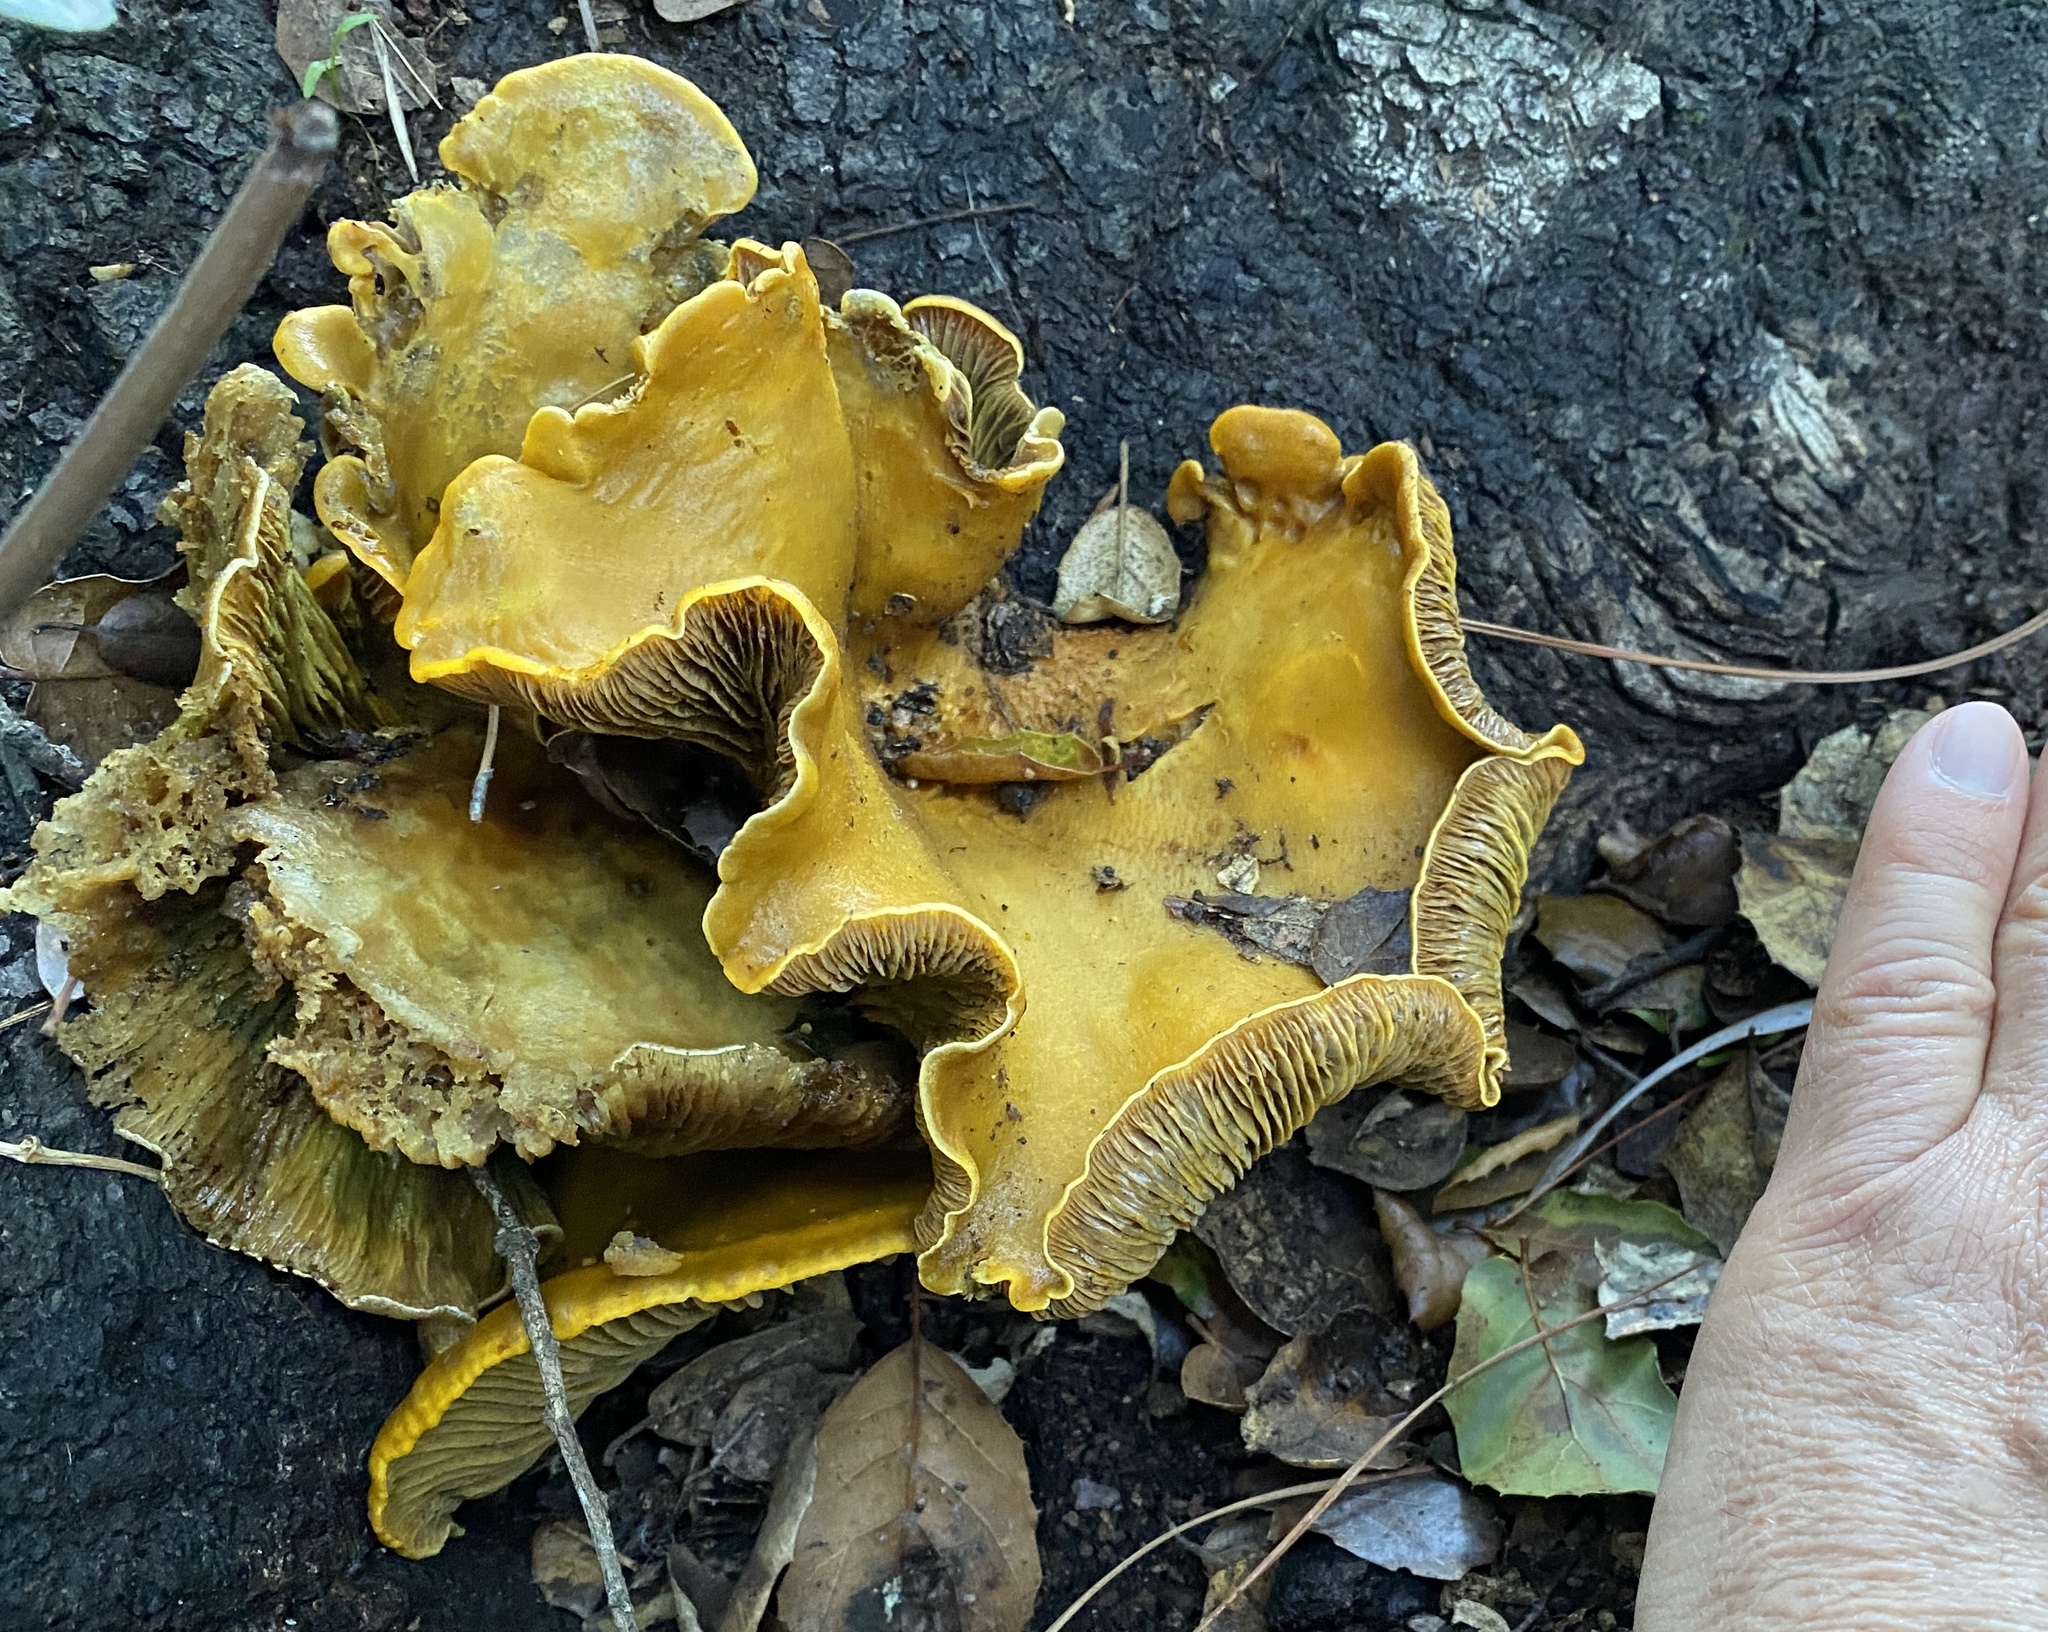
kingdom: Fungi
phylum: Basidiomycota
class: Agaricomycetes
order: Agaricales
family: Omphalotaceae
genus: Omphalotus
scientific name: Omphalotus olivascens
